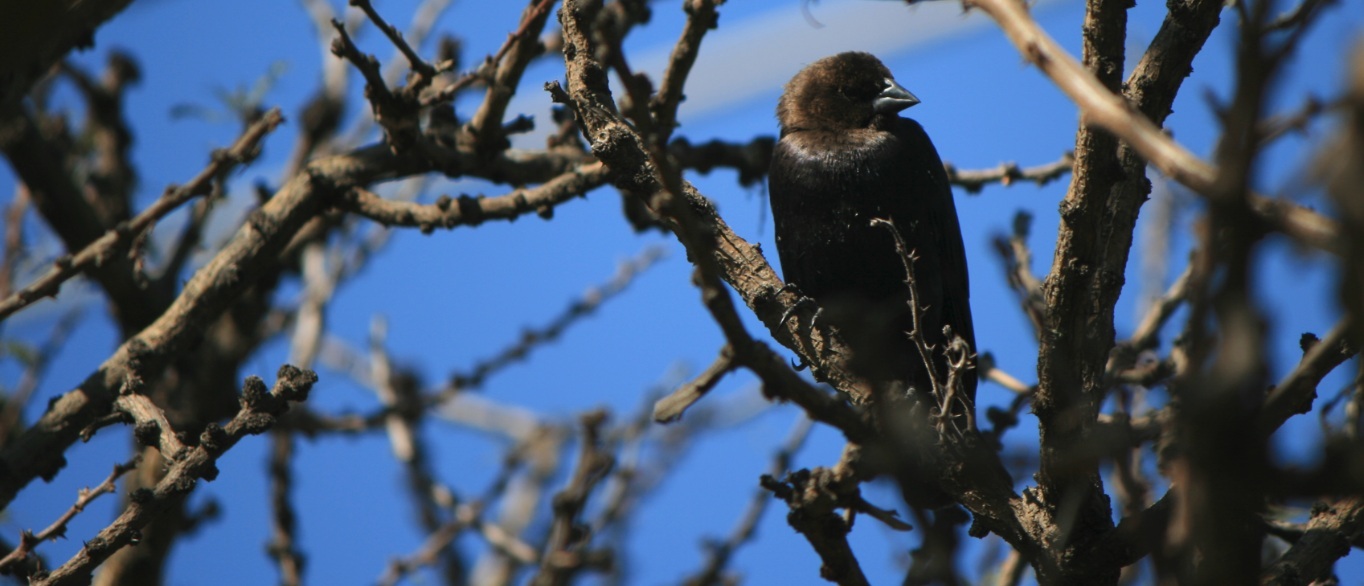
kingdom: Animalia
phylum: Chordata
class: Aves
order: Passeriformes
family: Icteridae
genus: Molothrus
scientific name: Molothrus ater
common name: Brown-headed cowbird
